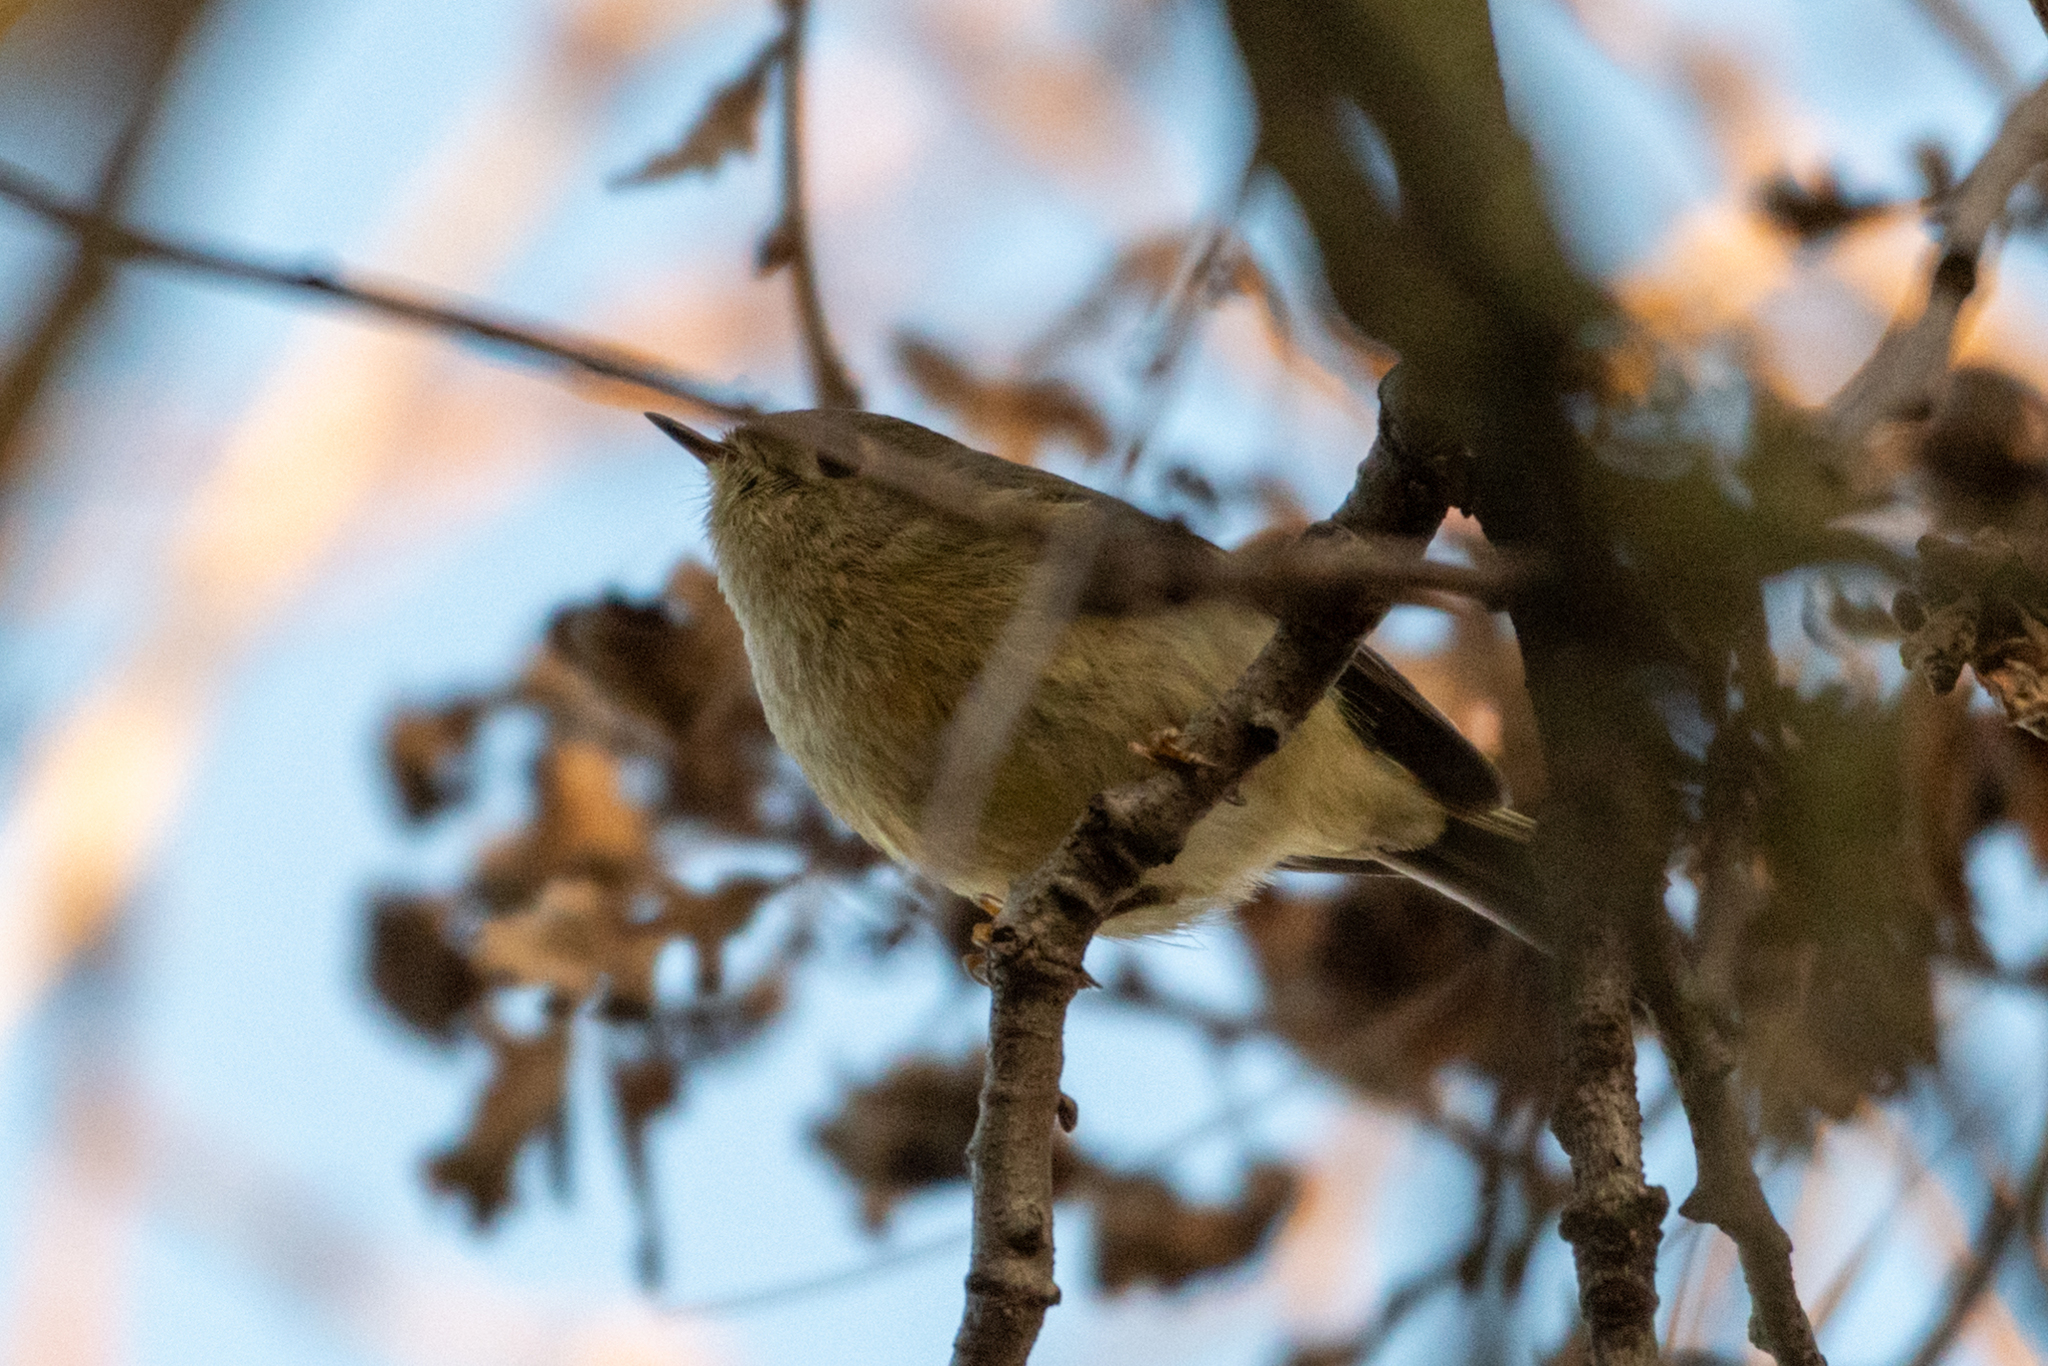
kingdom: Animalia
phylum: Chordata
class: Aves
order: Passeriformes
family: Regulidae
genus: Regulus
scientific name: Regulus calendula
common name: Ruby-crowned kinglet
